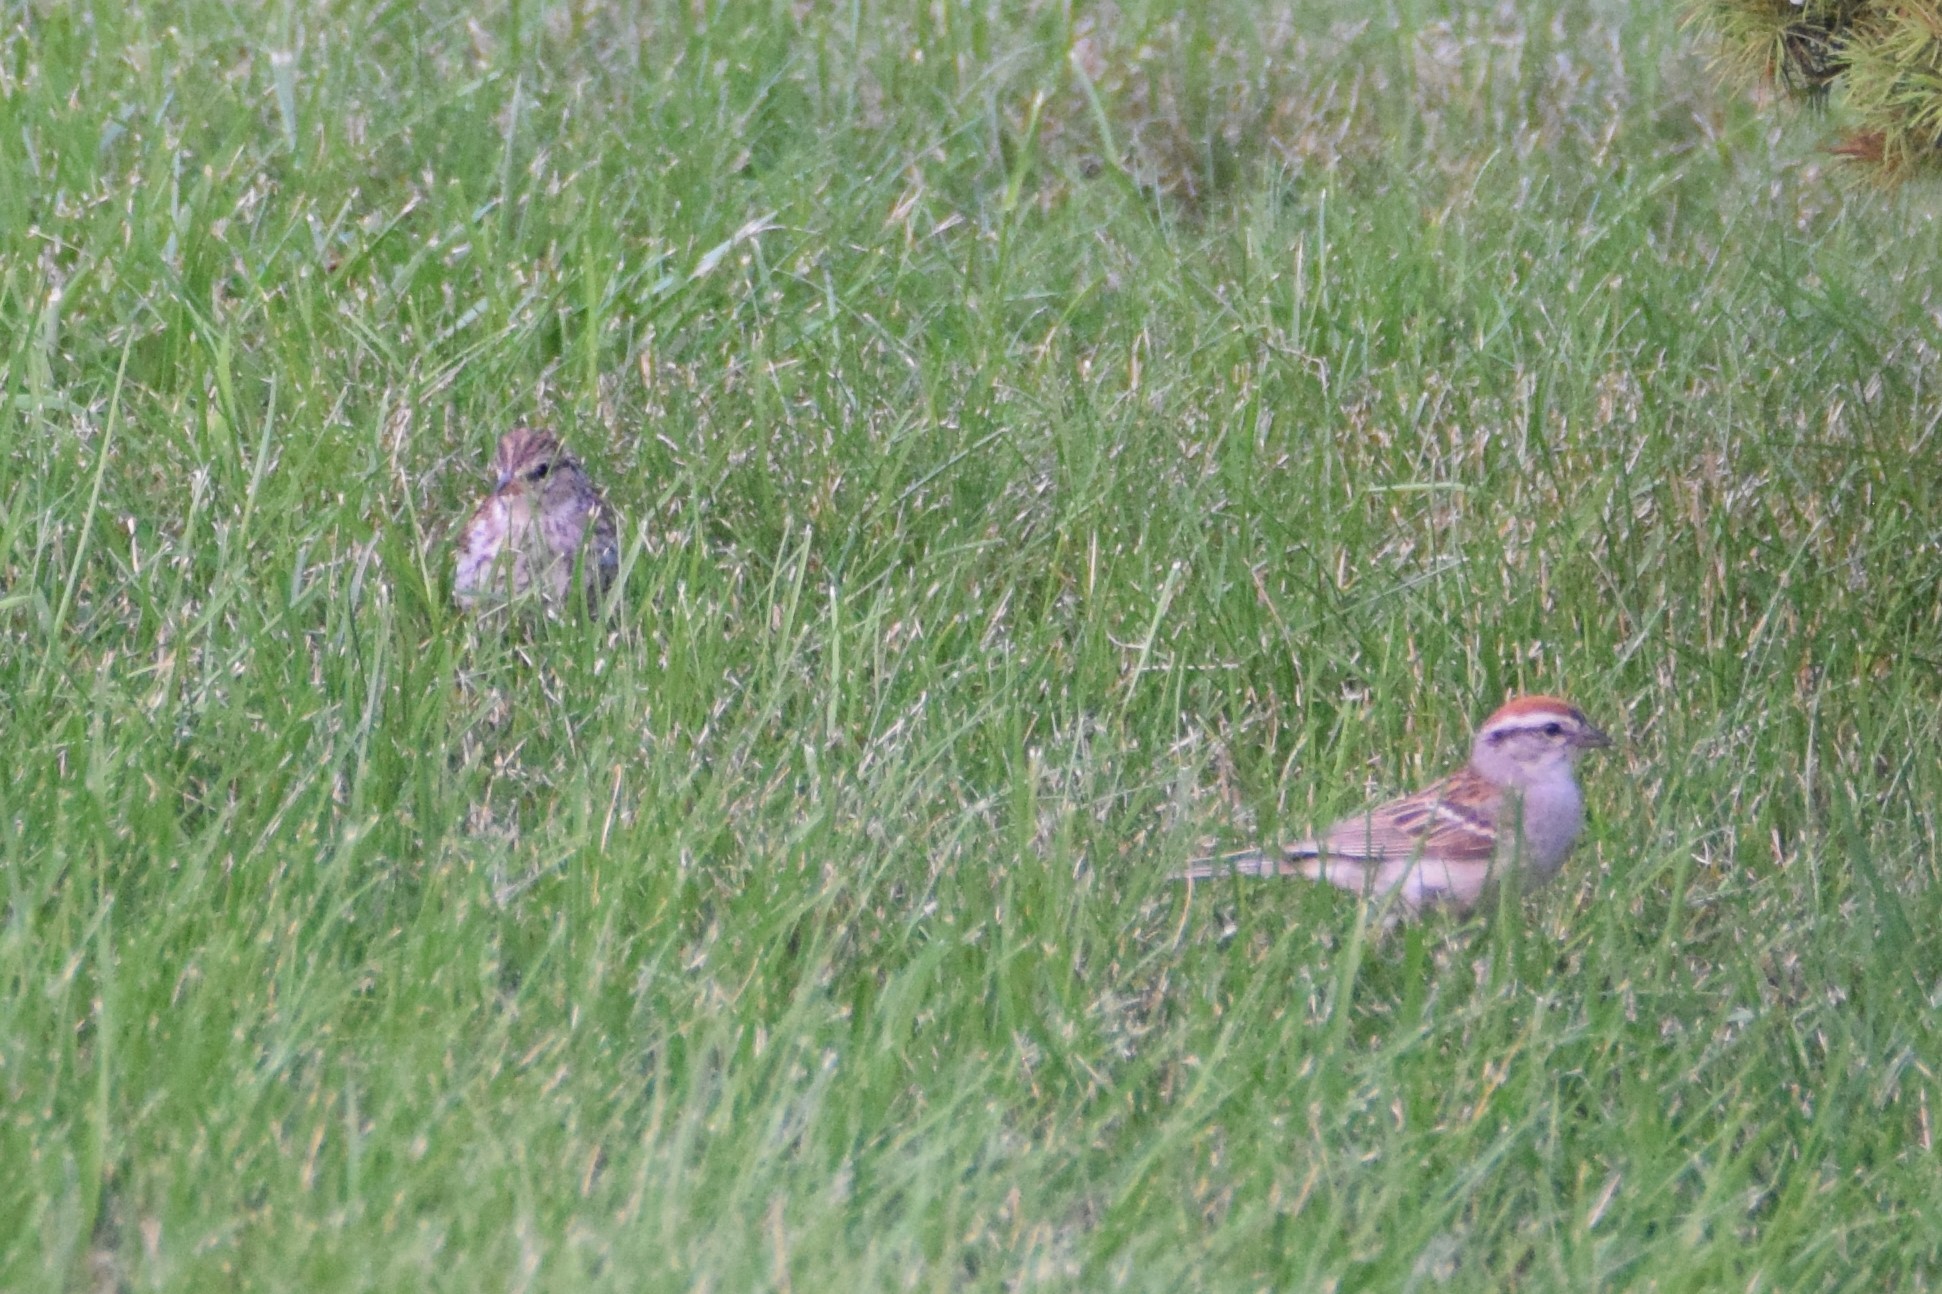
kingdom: Animalia
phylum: Chordata
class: Aves
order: Passeriformes
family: Passerellidae
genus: Spizella
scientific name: Spizella passerina
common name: Chipping sparrow
